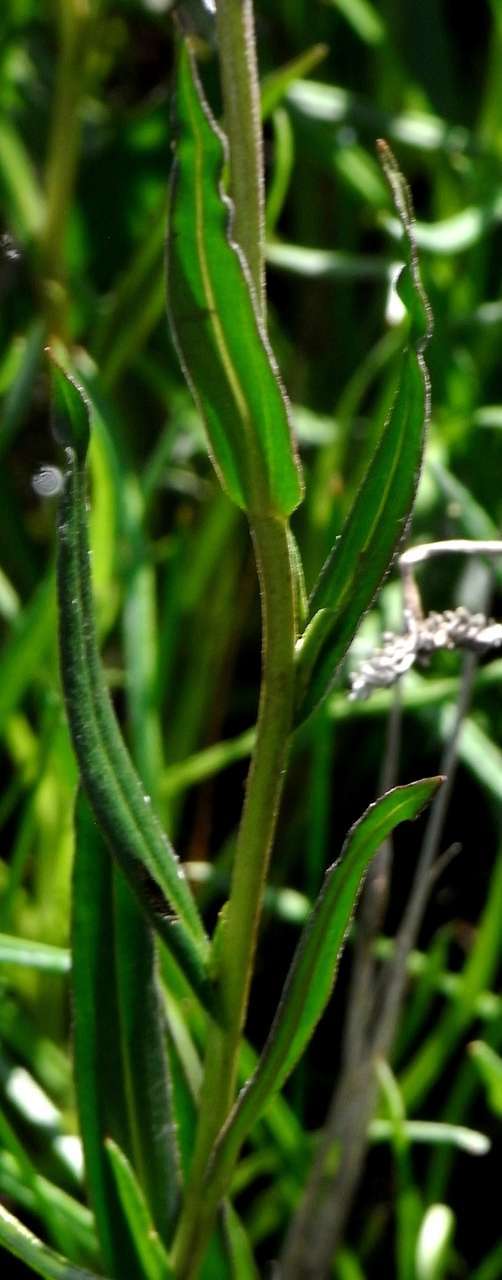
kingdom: Plantae
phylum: Tracheophyta
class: Magnoliopsida
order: Asterales
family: Asteraceae
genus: Xerochrysum
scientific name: Xerochrysum palustre
